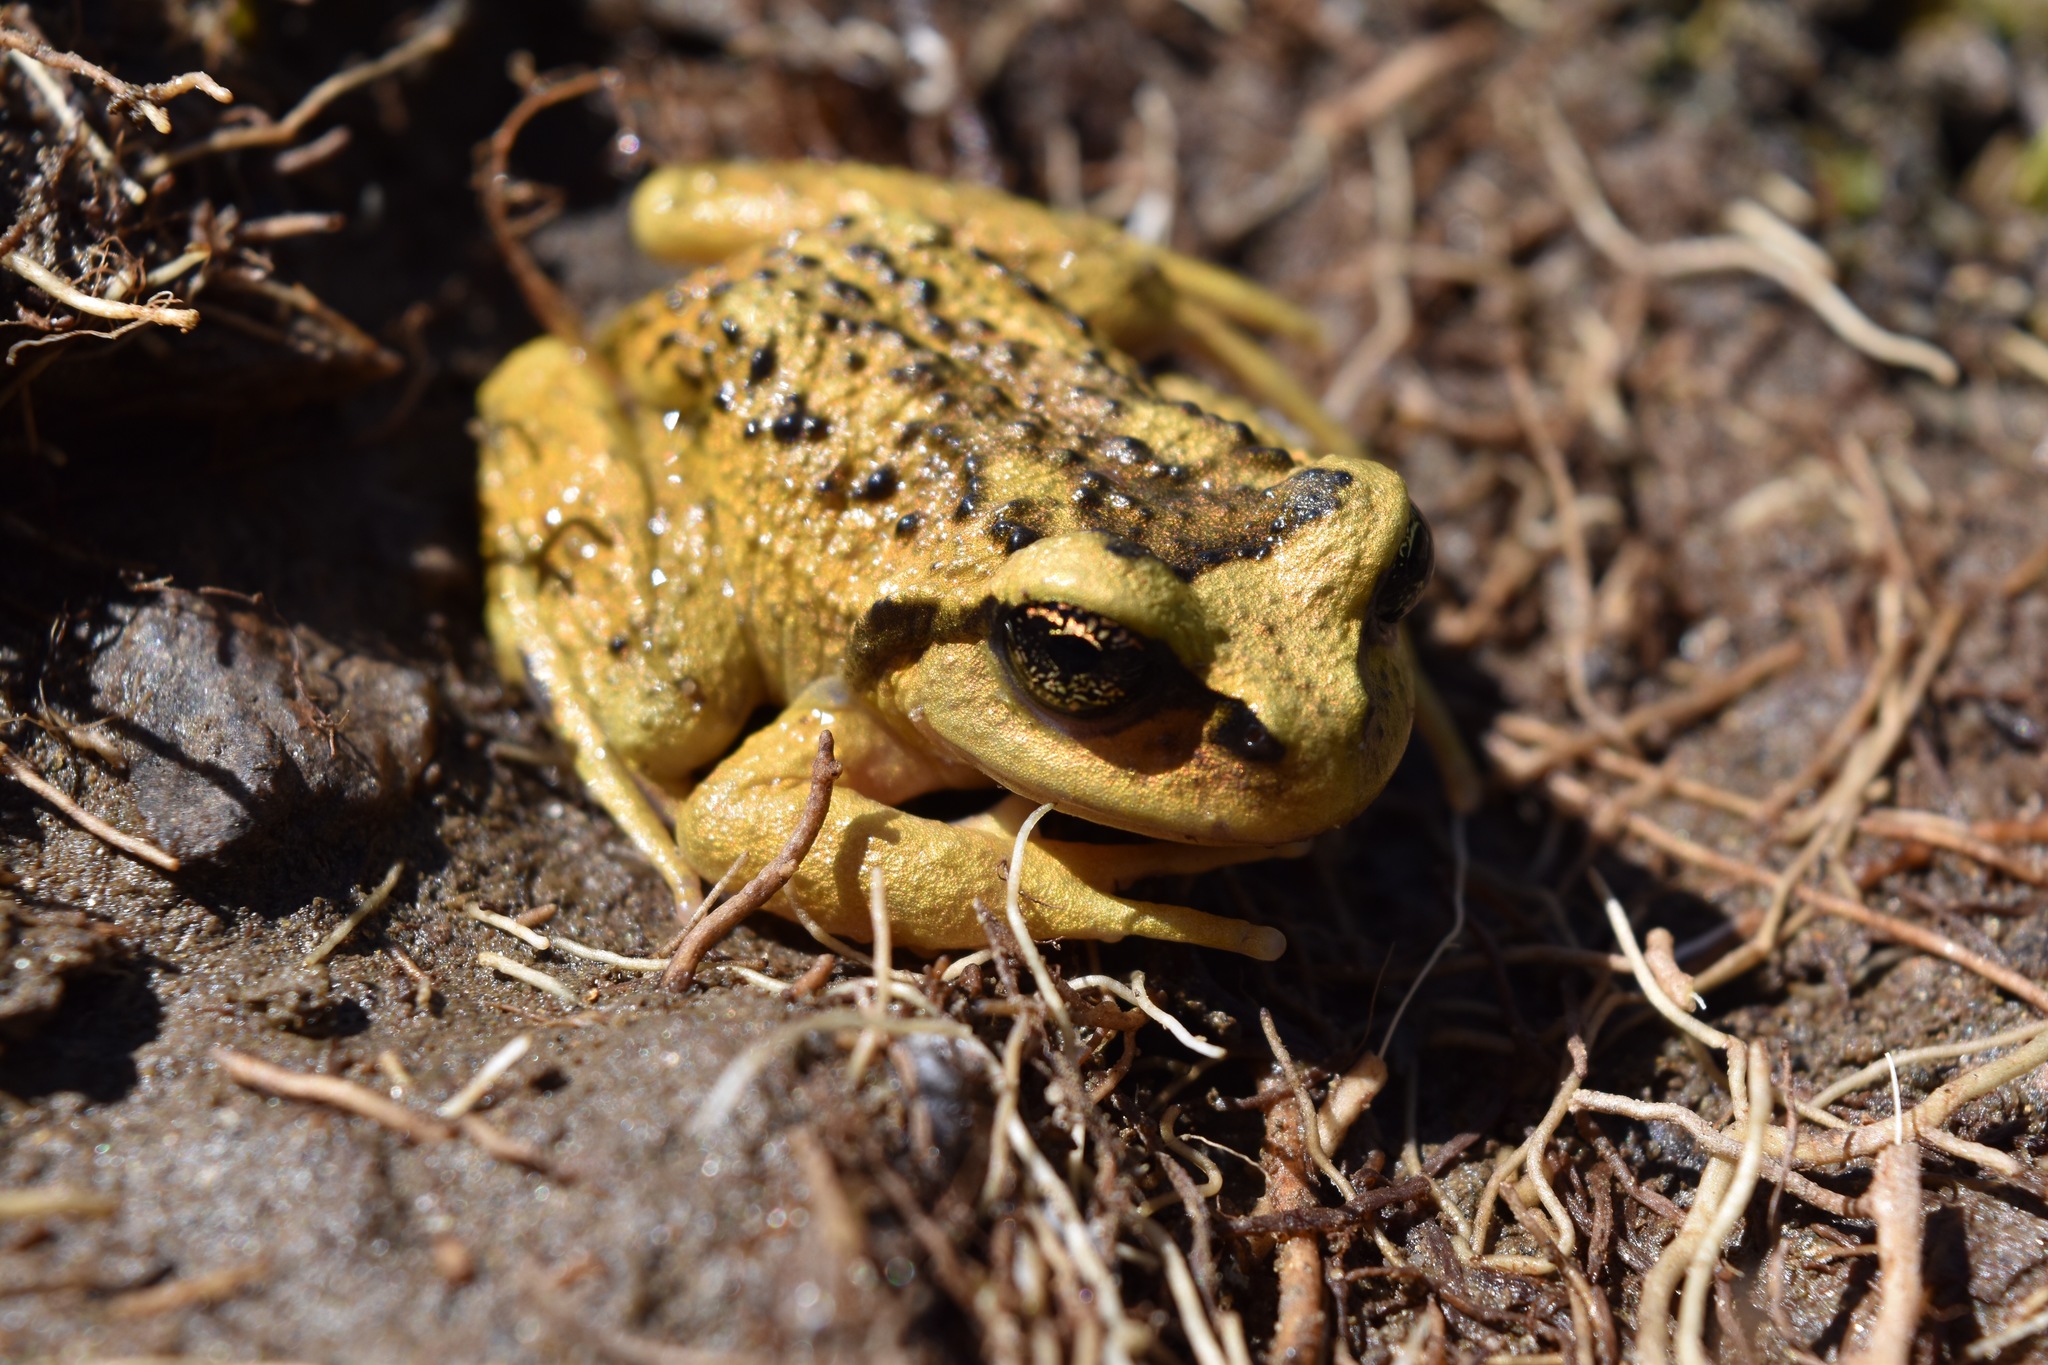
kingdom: Animalia
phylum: Chordata
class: Amphibia
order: Anura
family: Alsodidae
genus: Alsodes
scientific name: Alsodes valdiviensis
